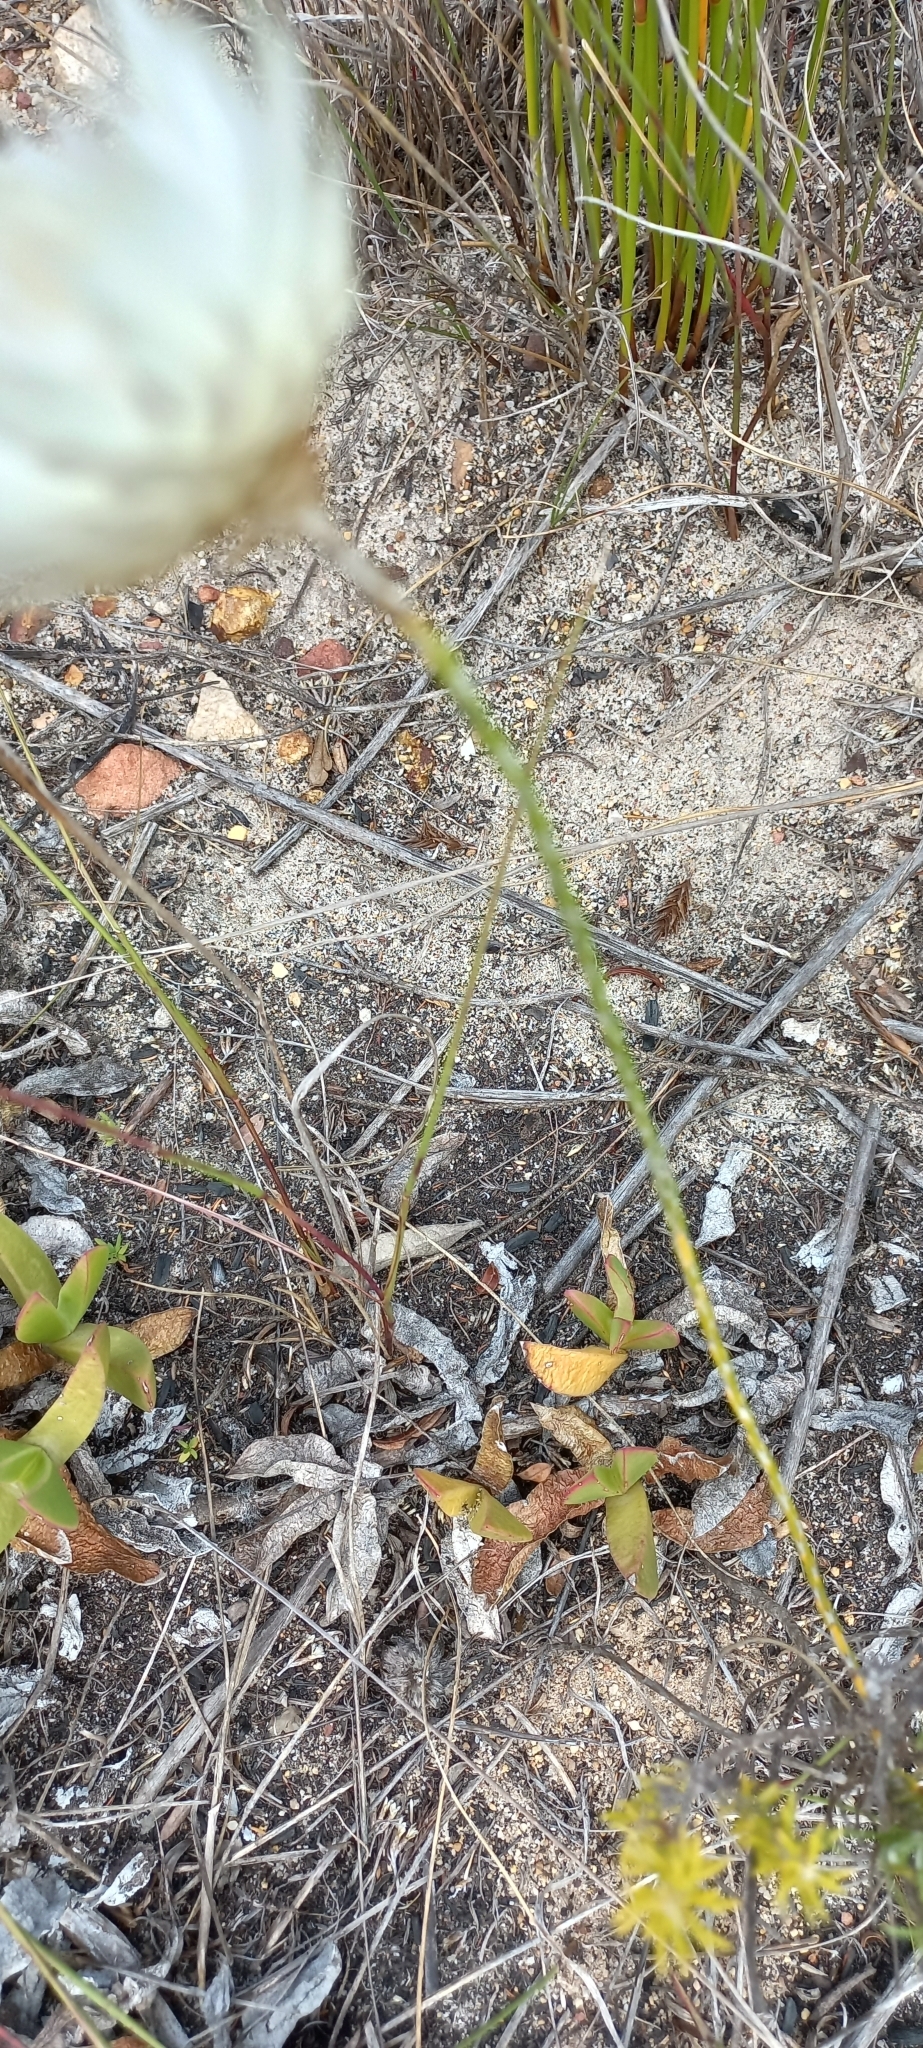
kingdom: Plantae
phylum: Tracheophyta
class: Magnoliopsida
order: Asterales
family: Asteraceae
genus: Edmondia
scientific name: Edmondia sesamoides
